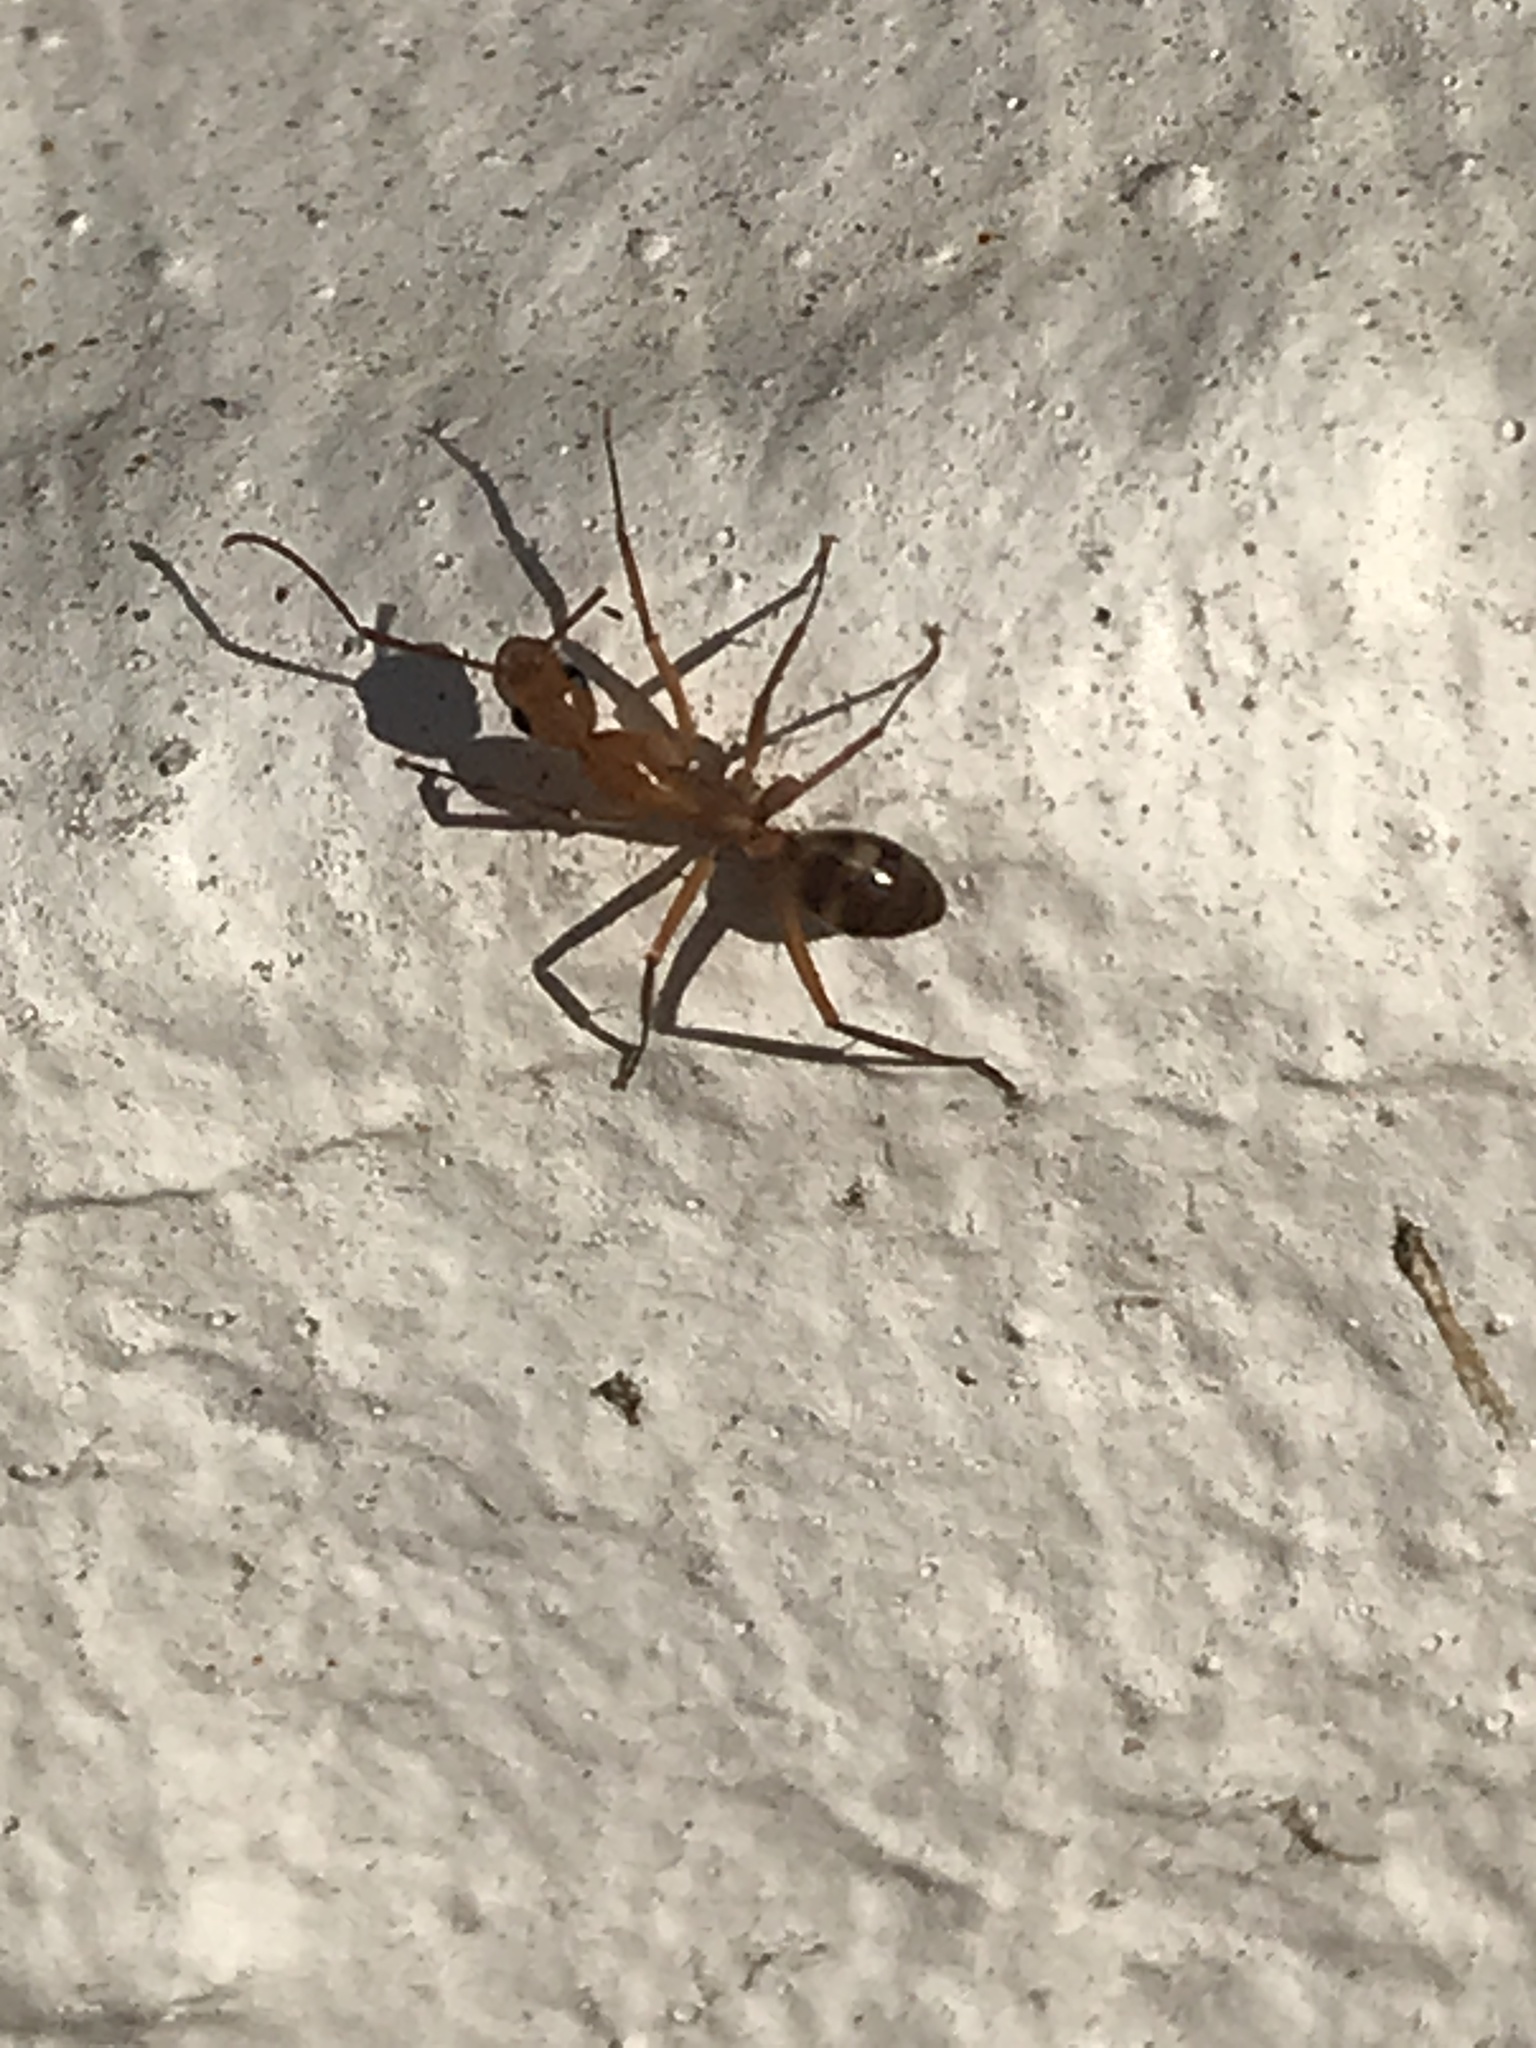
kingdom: Animalia
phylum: Arthropoda
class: Insecta
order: Hymenoptera
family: Formicidae
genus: Camponotus
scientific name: Camponotus
